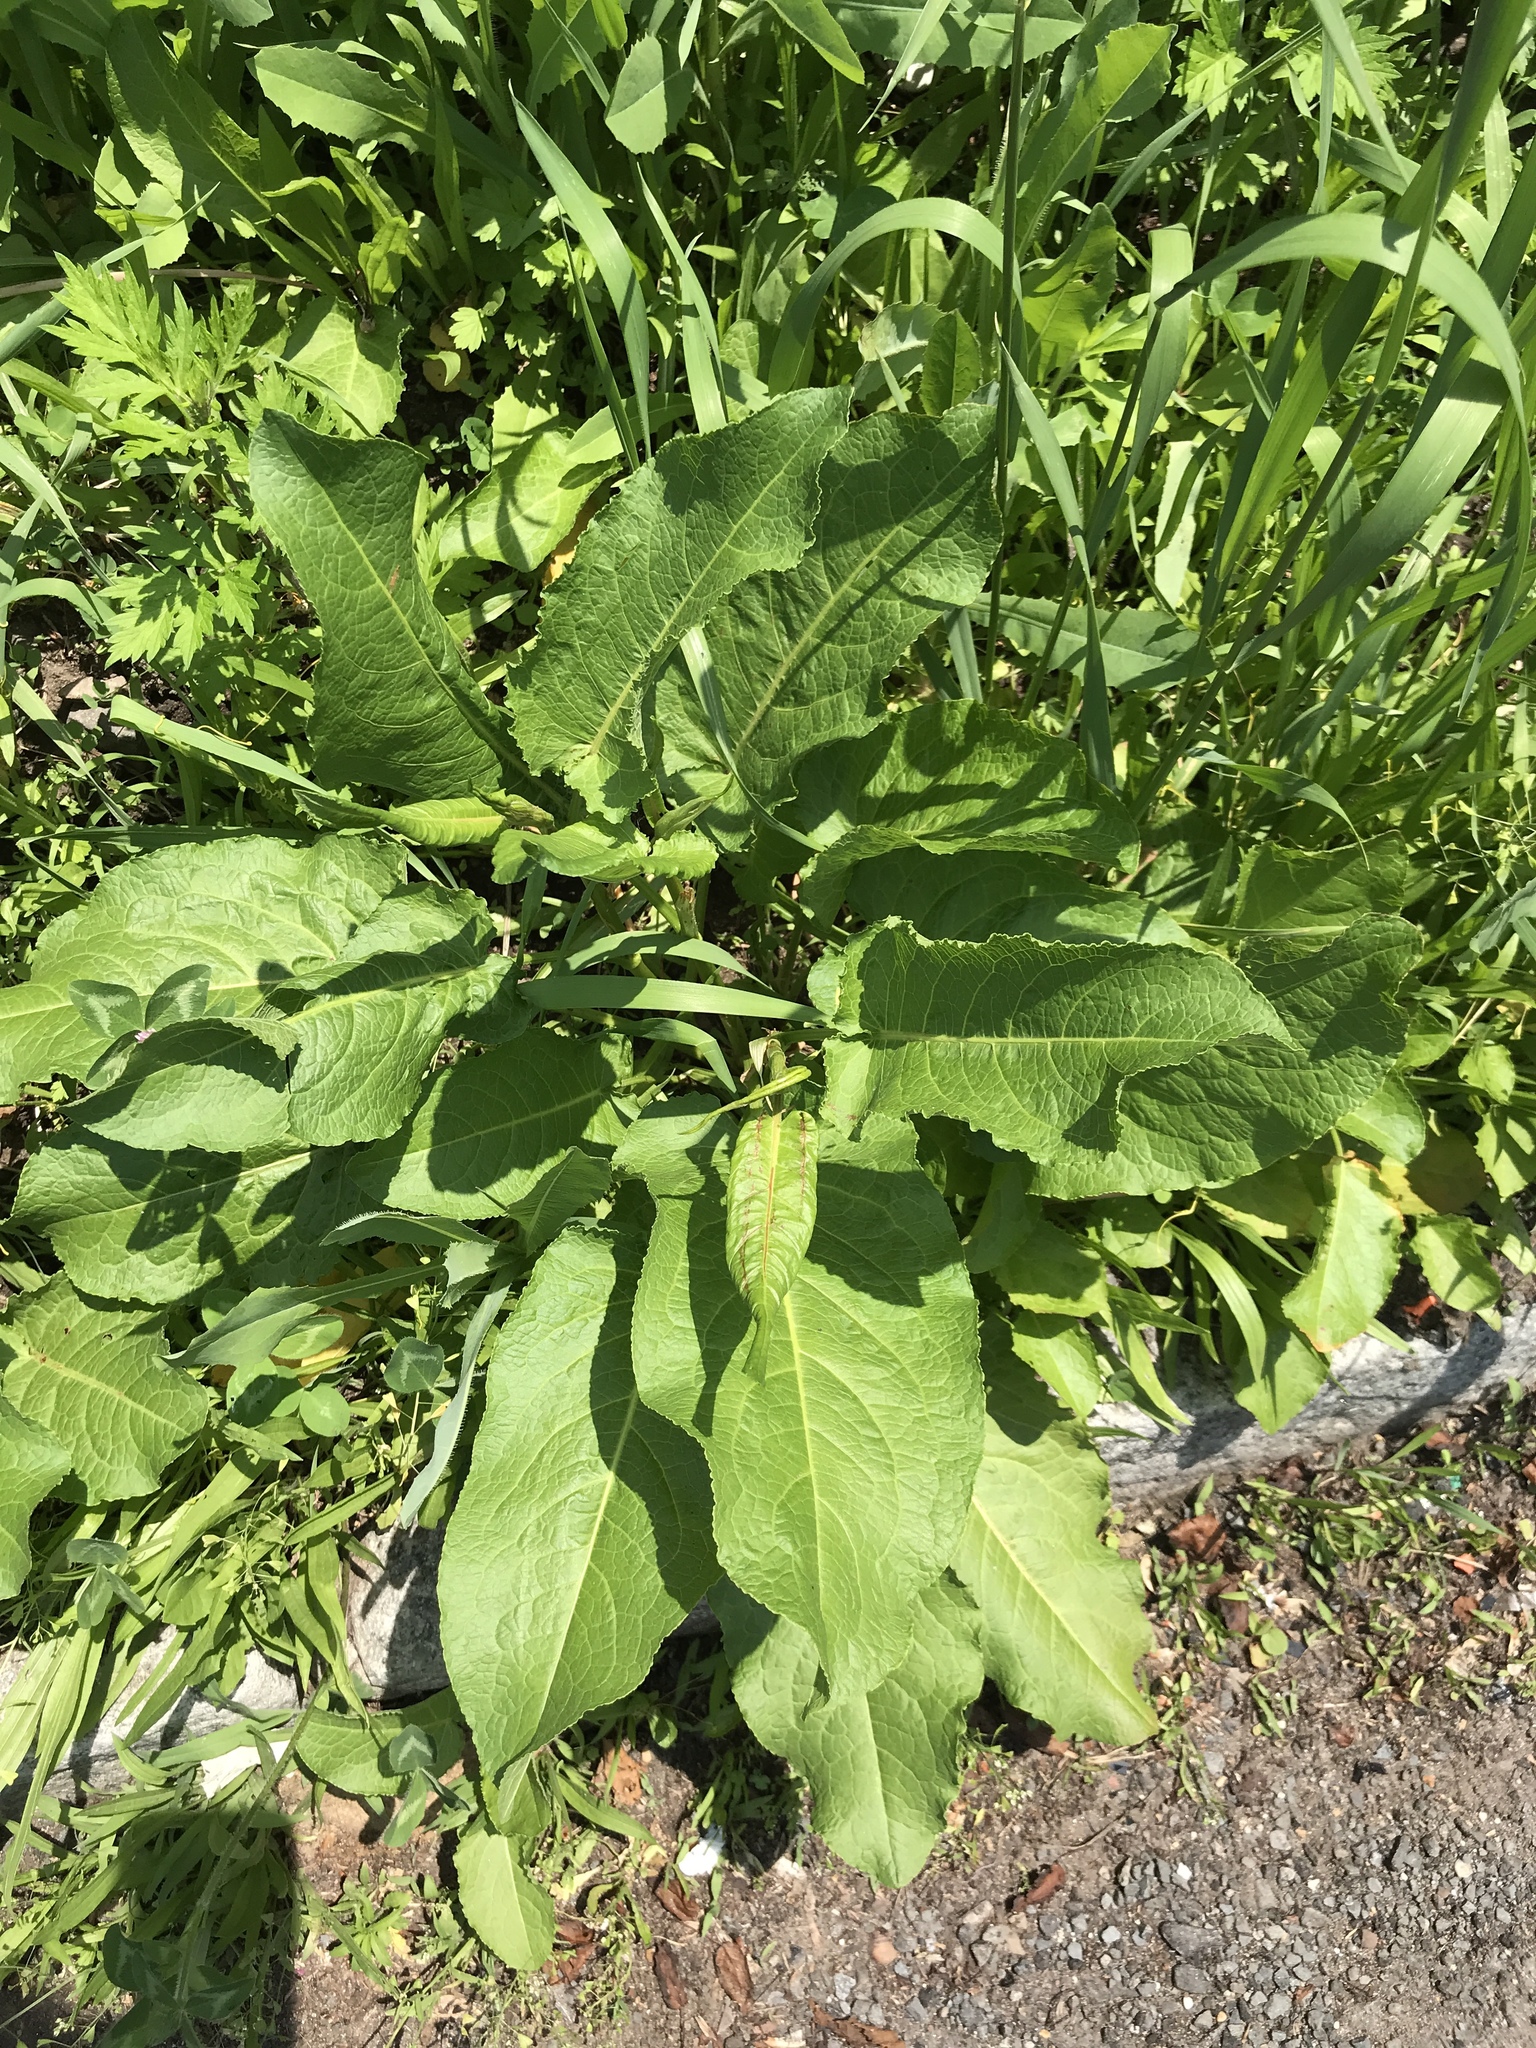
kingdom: Plantae
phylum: Tracheophyta
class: Magnoliopsida
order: Caryophyllales
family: Polygonaceae
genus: Rumex
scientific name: Rumex obtusifolius
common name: Bitter dock
